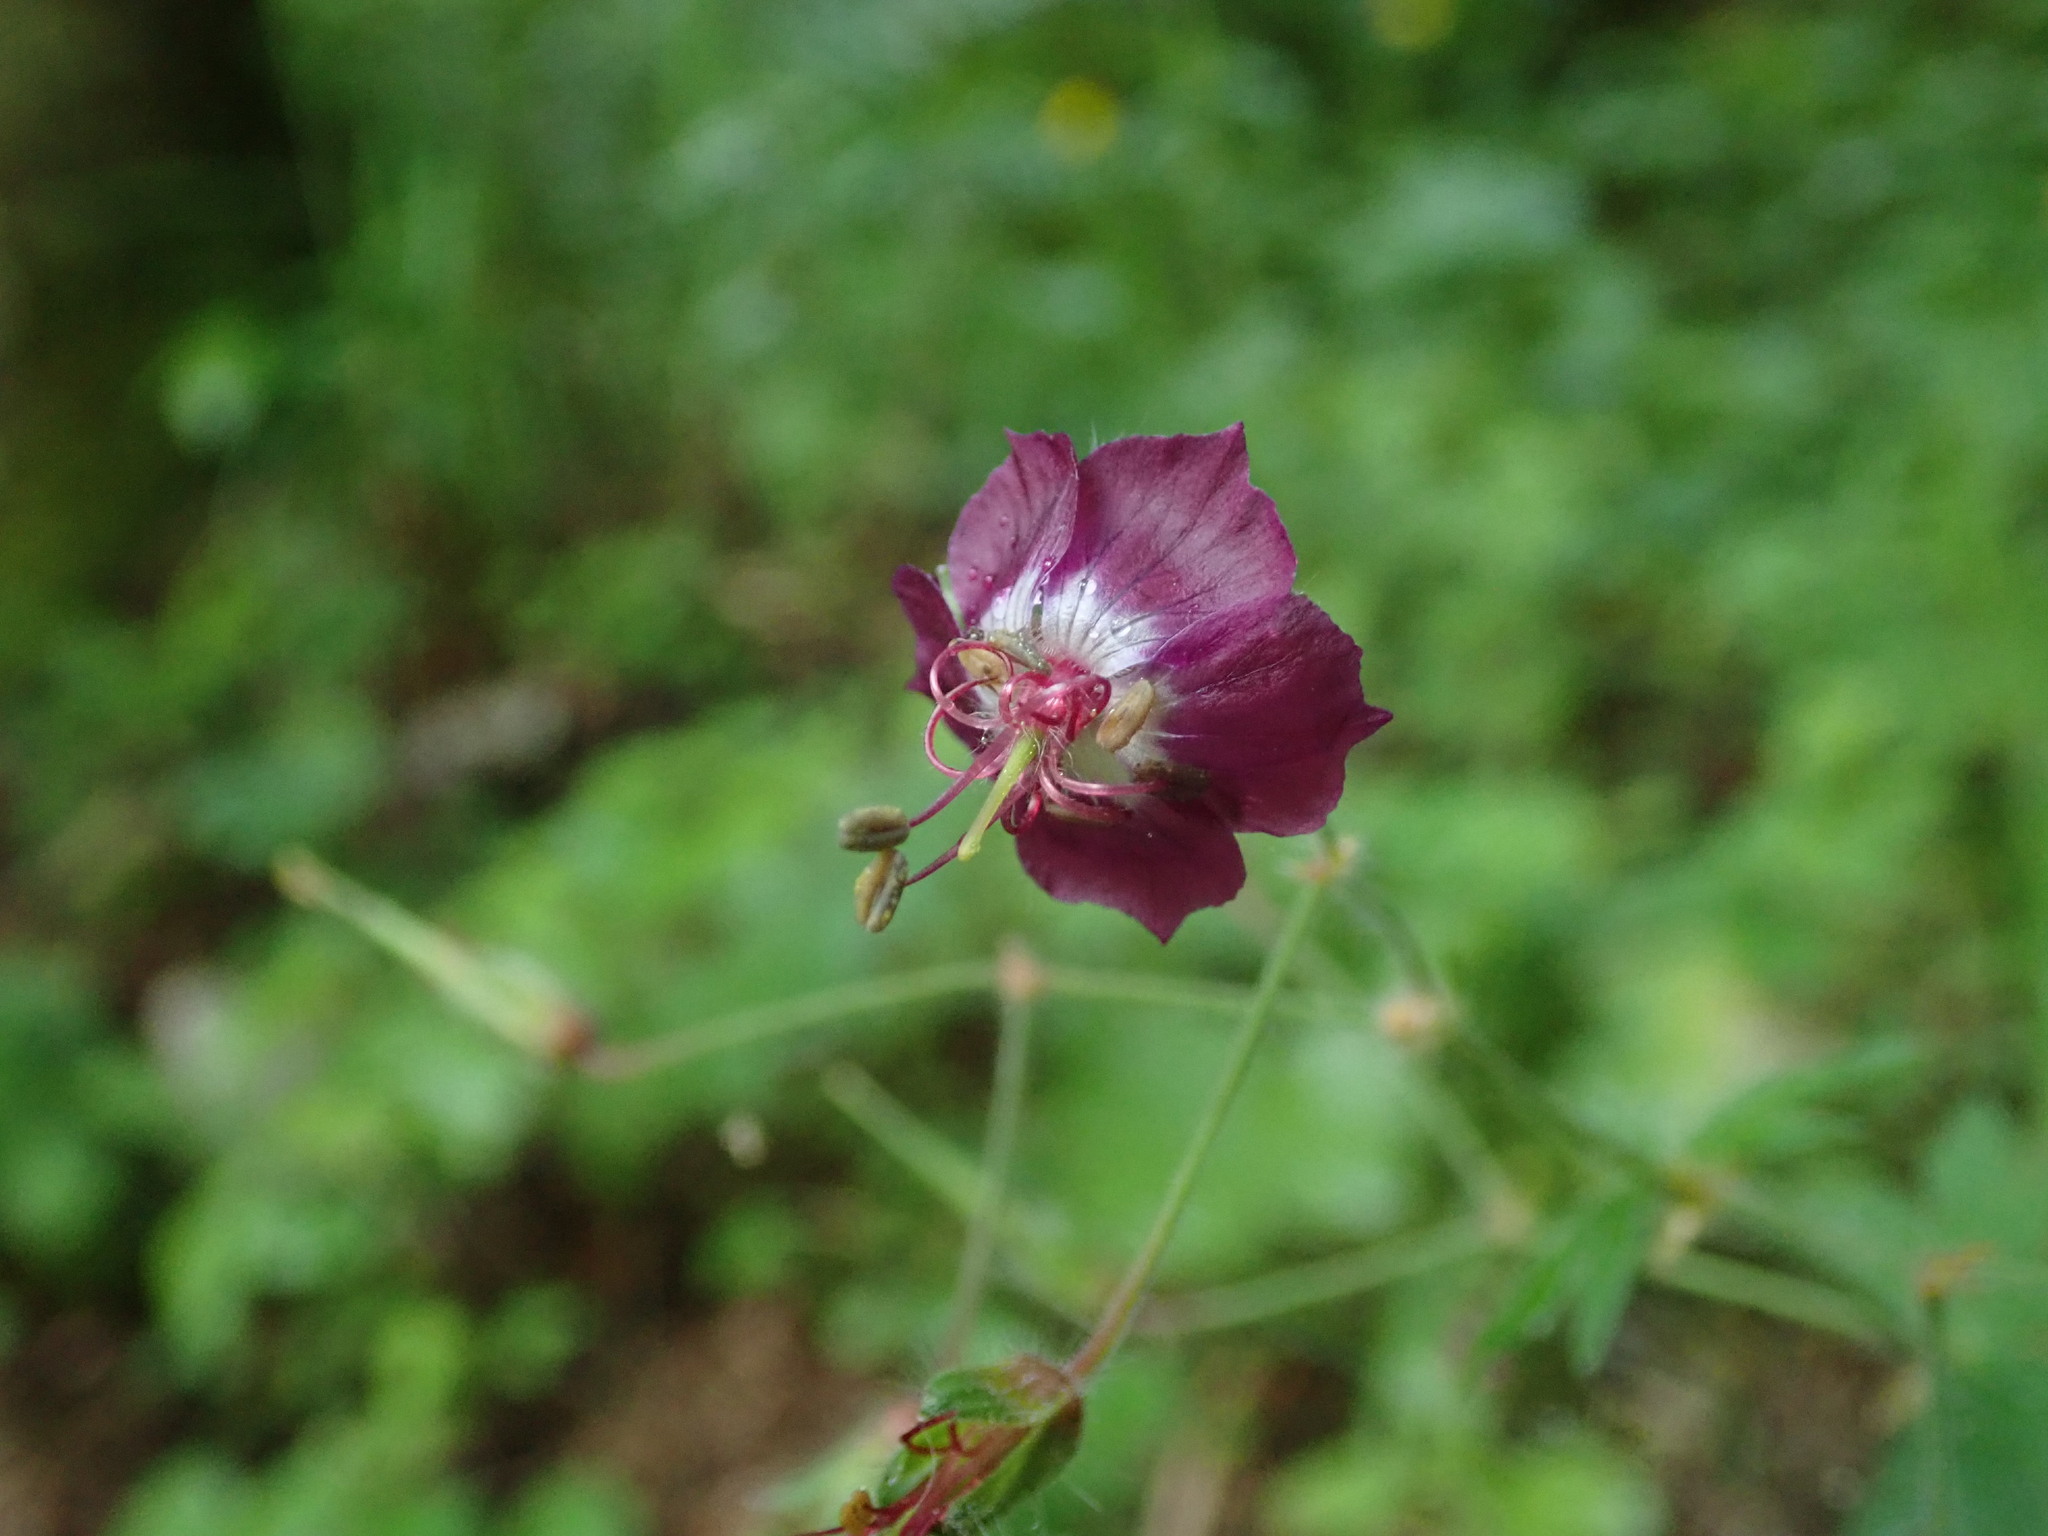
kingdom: Plantae
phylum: Tracheophyta
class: Magnoliopsida
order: Geraniales
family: Geraniaceae
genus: Geranium
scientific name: Geranium phaeum
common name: Dusky crane's-bill
